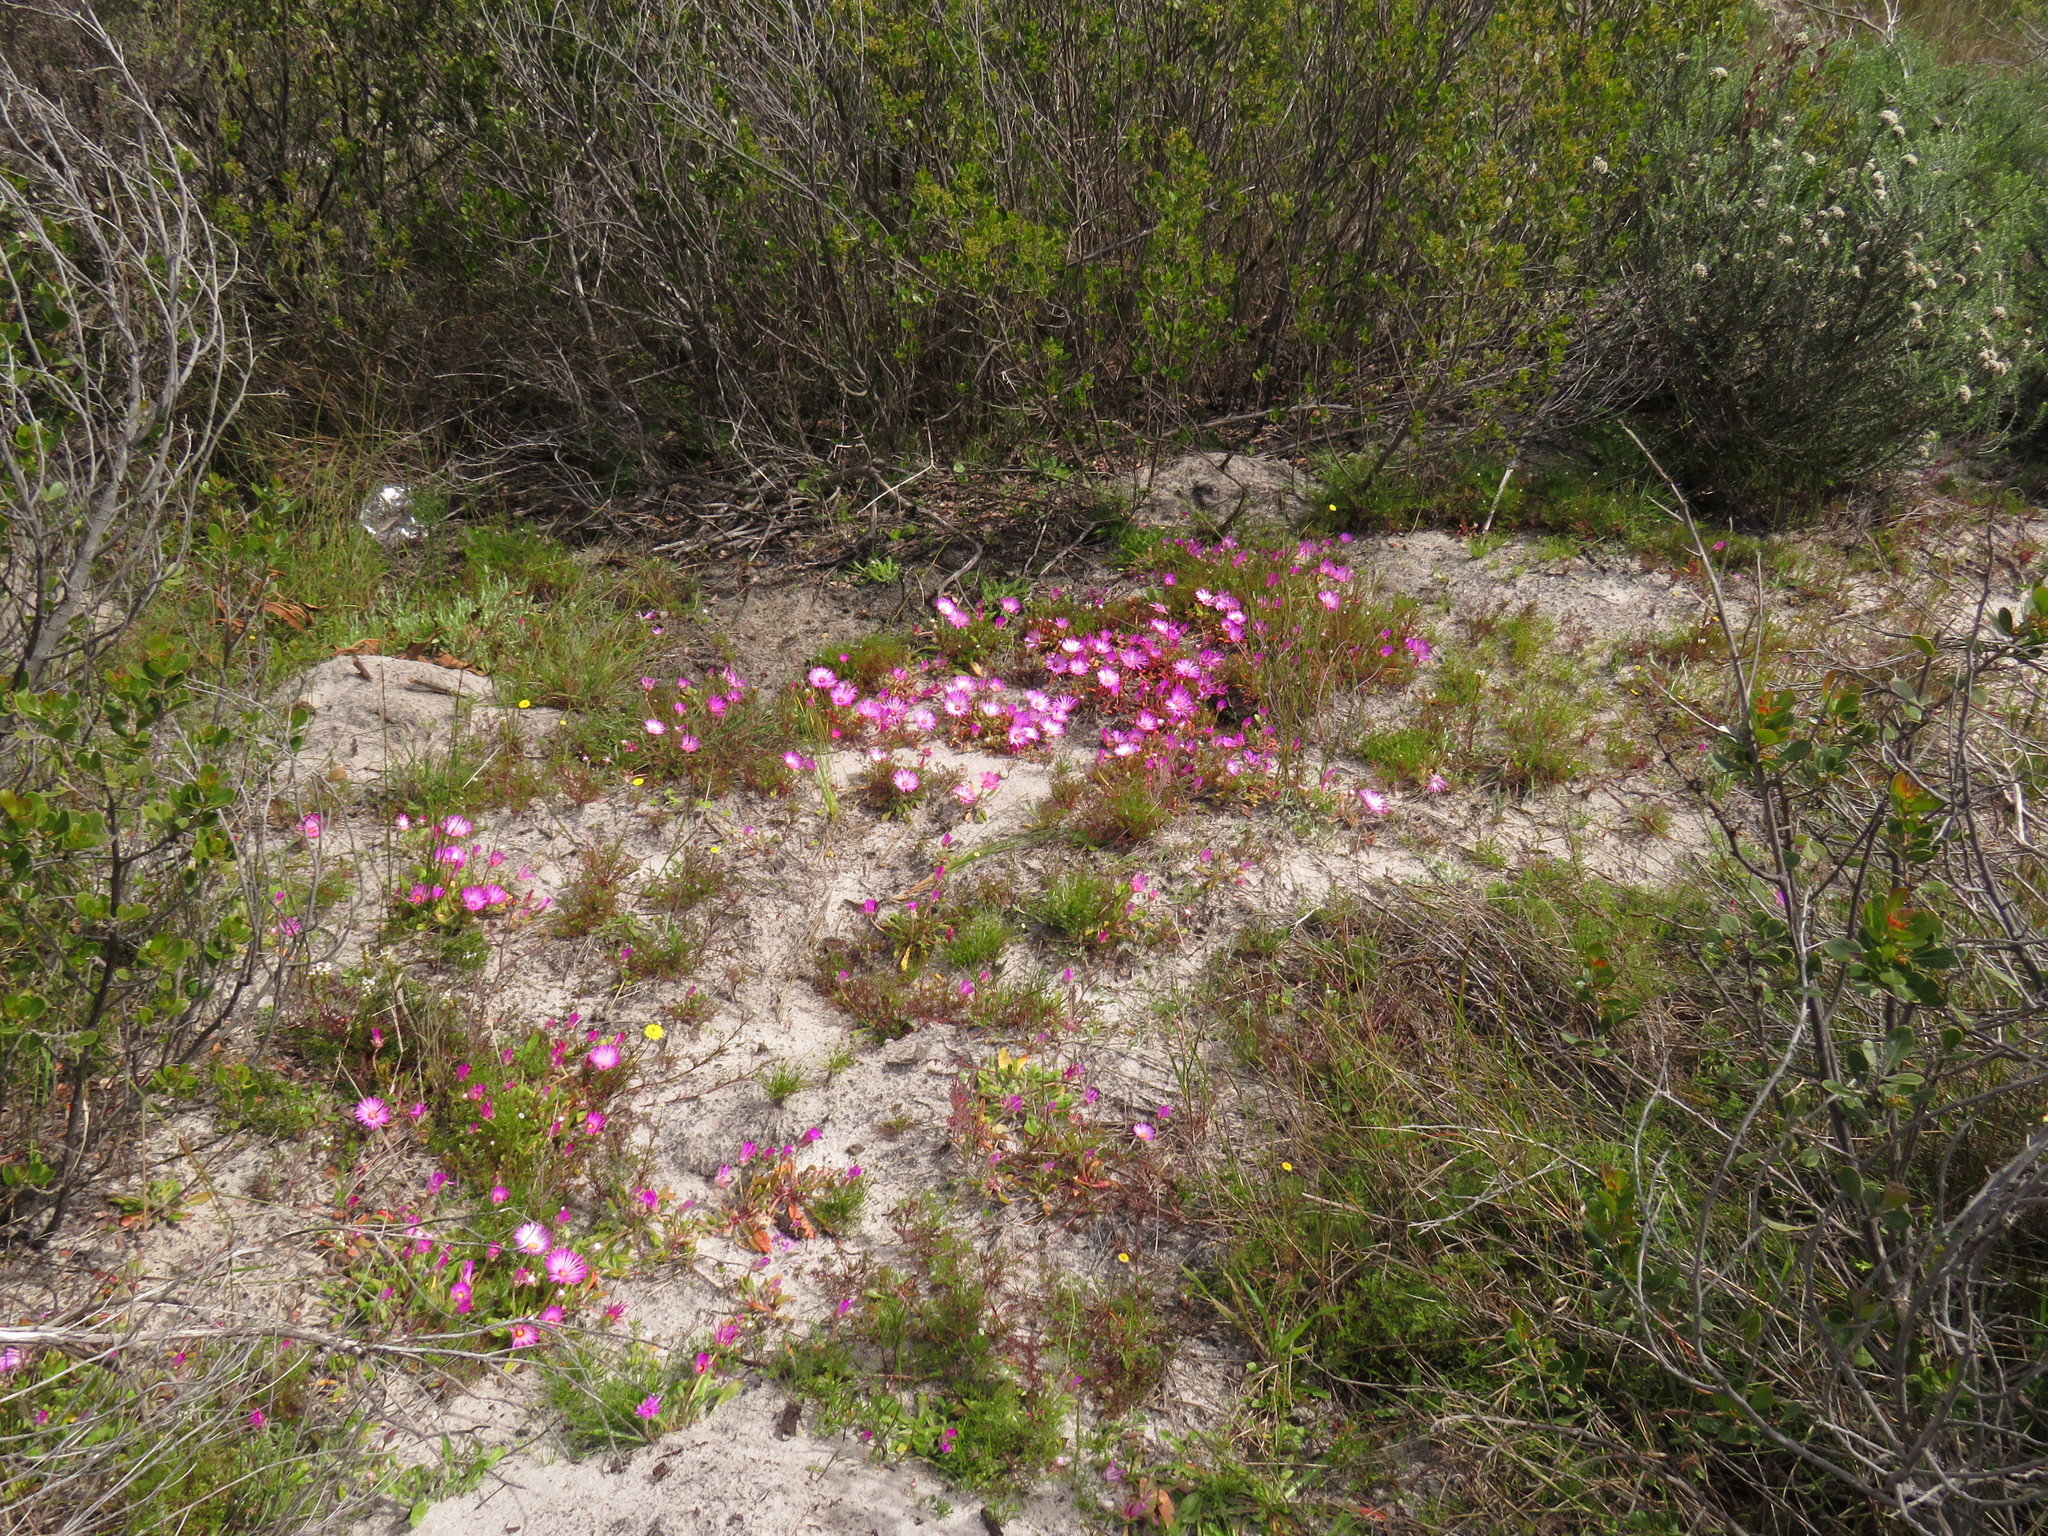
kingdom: Plantae
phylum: Tracheophyta
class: Magnoliopsida
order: Caryophyllales
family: Aizoaceae
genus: Cleretum
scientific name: Cleretum bellidiforme
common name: Livingstone daisy
